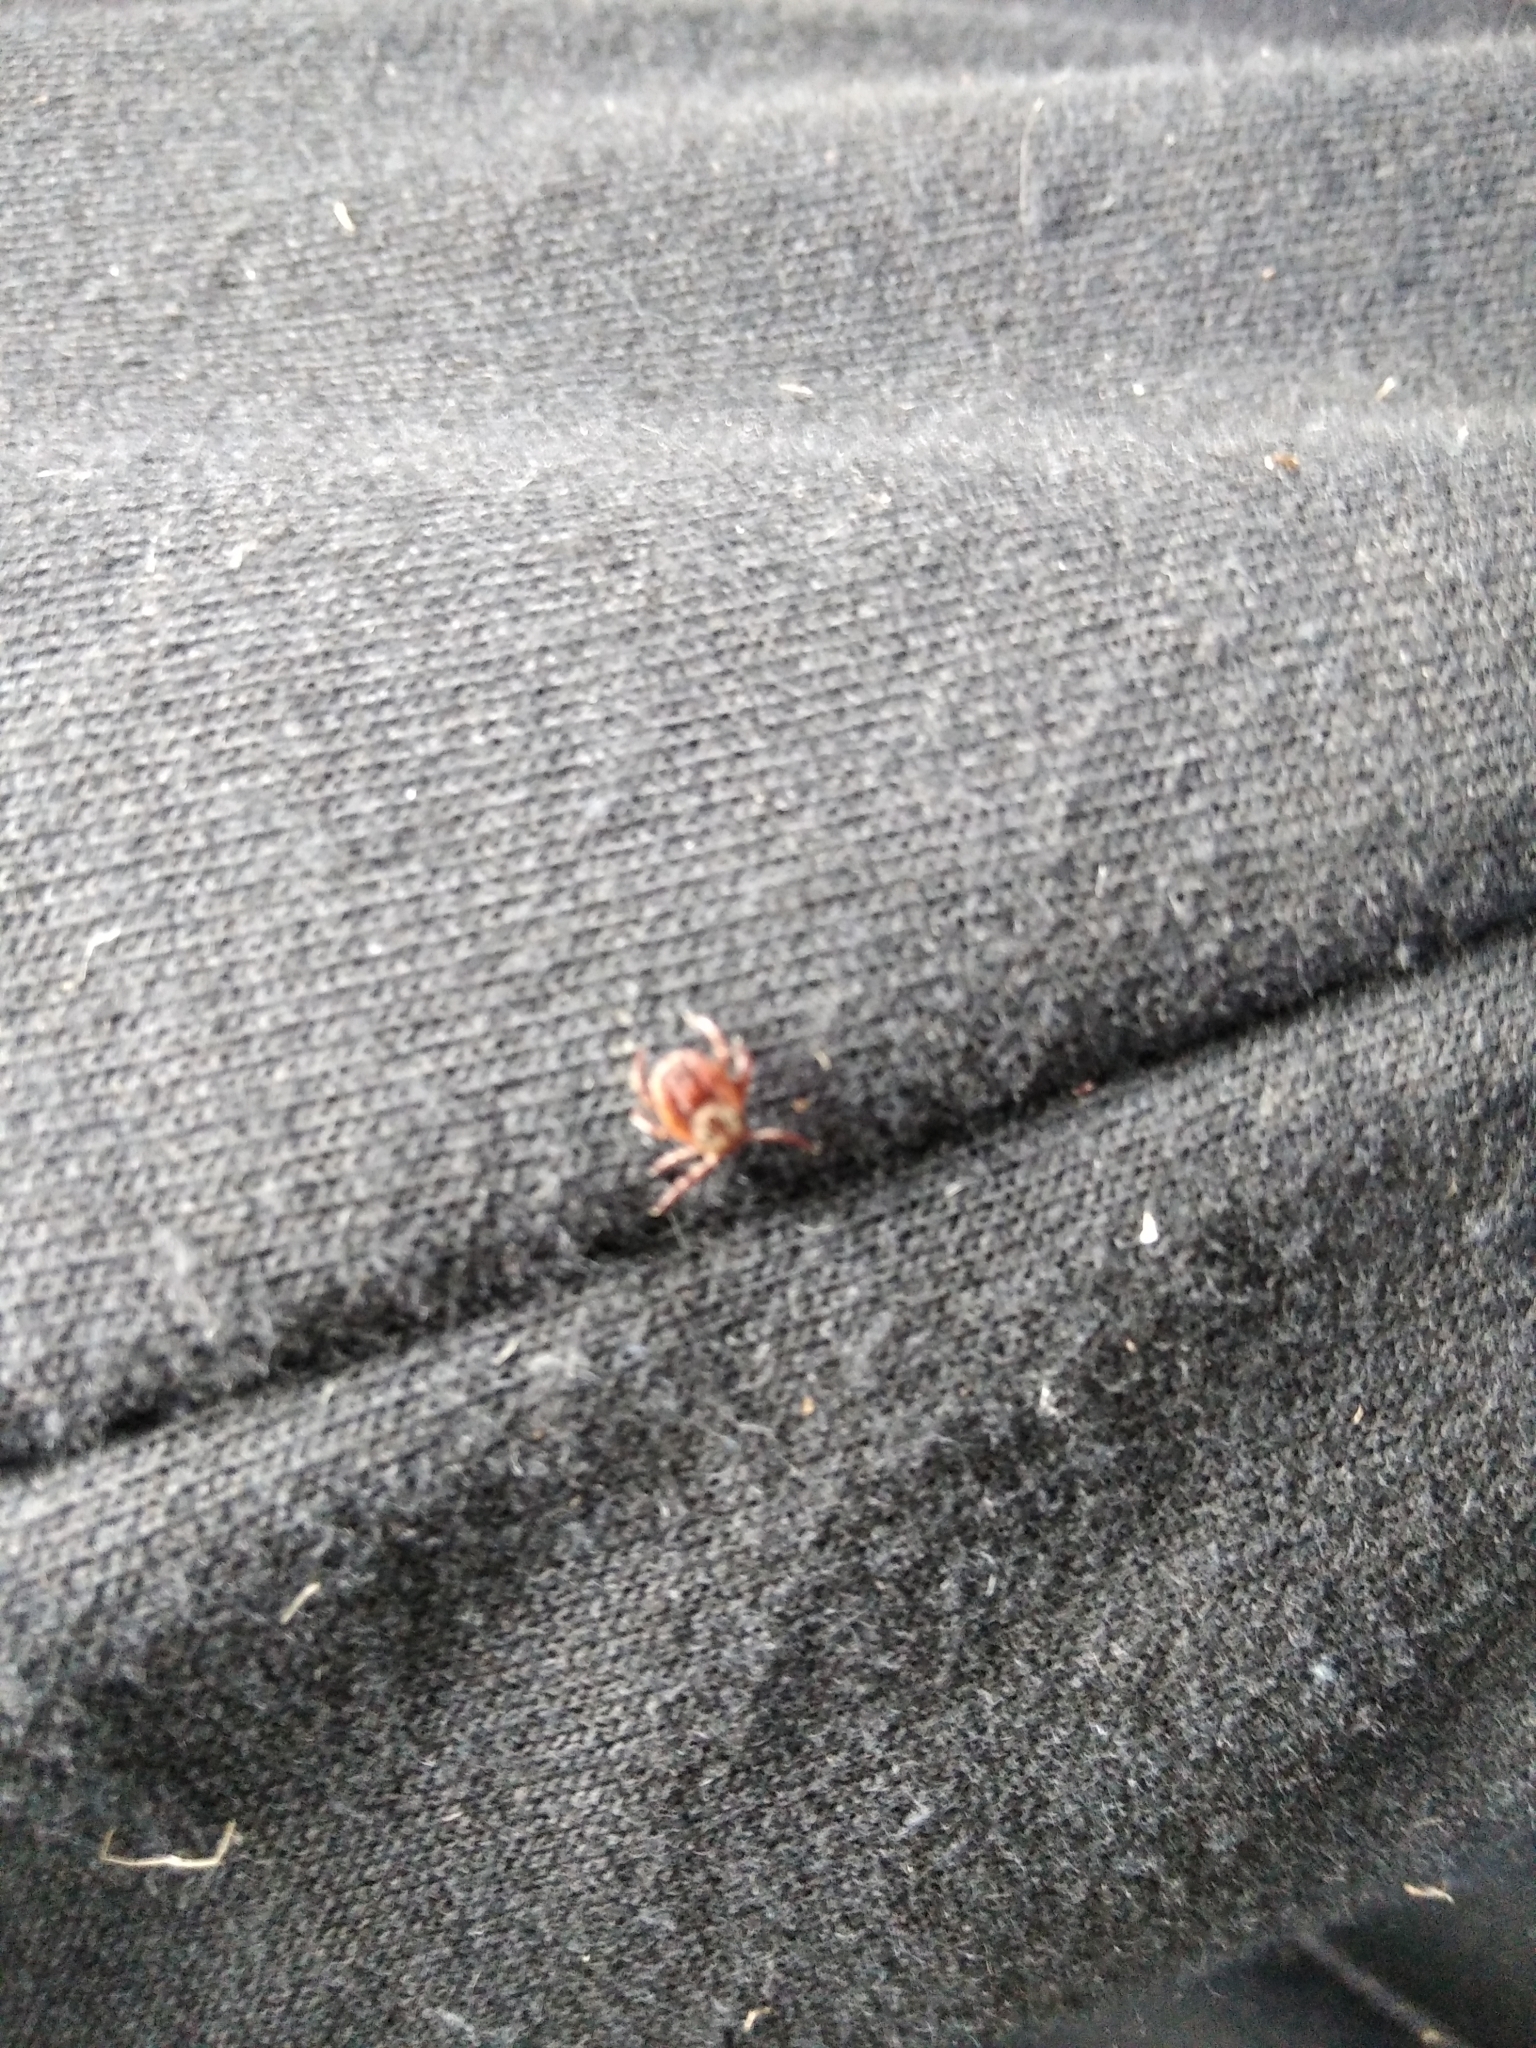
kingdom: Animalia
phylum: Arthropoda
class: Arachnida
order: Ixodida
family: Ixodidae
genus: Dermacentor
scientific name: Dermacentor
